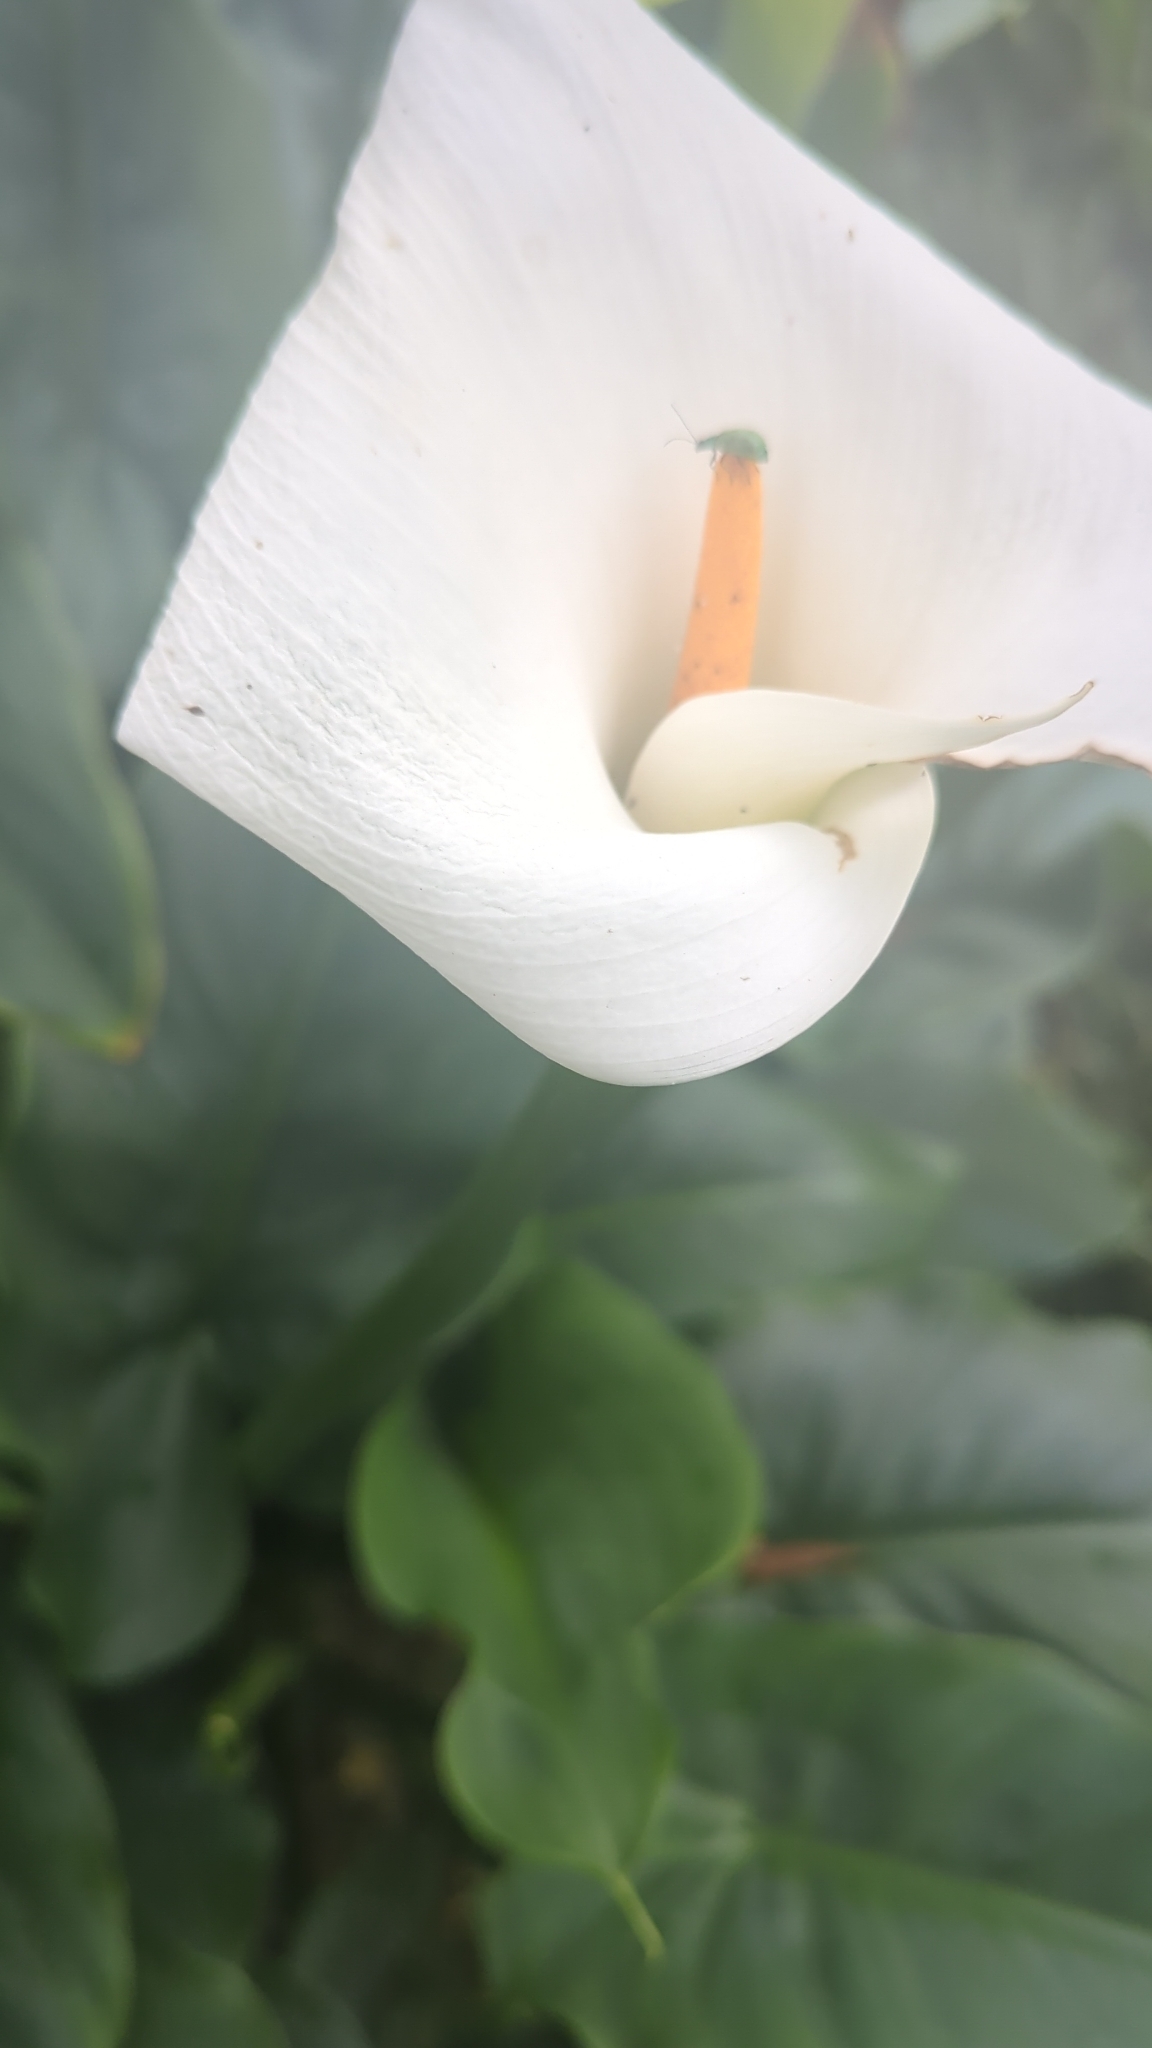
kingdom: Plantae
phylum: Tracheophyta
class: Liliopsida
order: Alismatales
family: Araceae
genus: Zantedeschia
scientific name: Zantedeschia aethiopica
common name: Altar-lily
